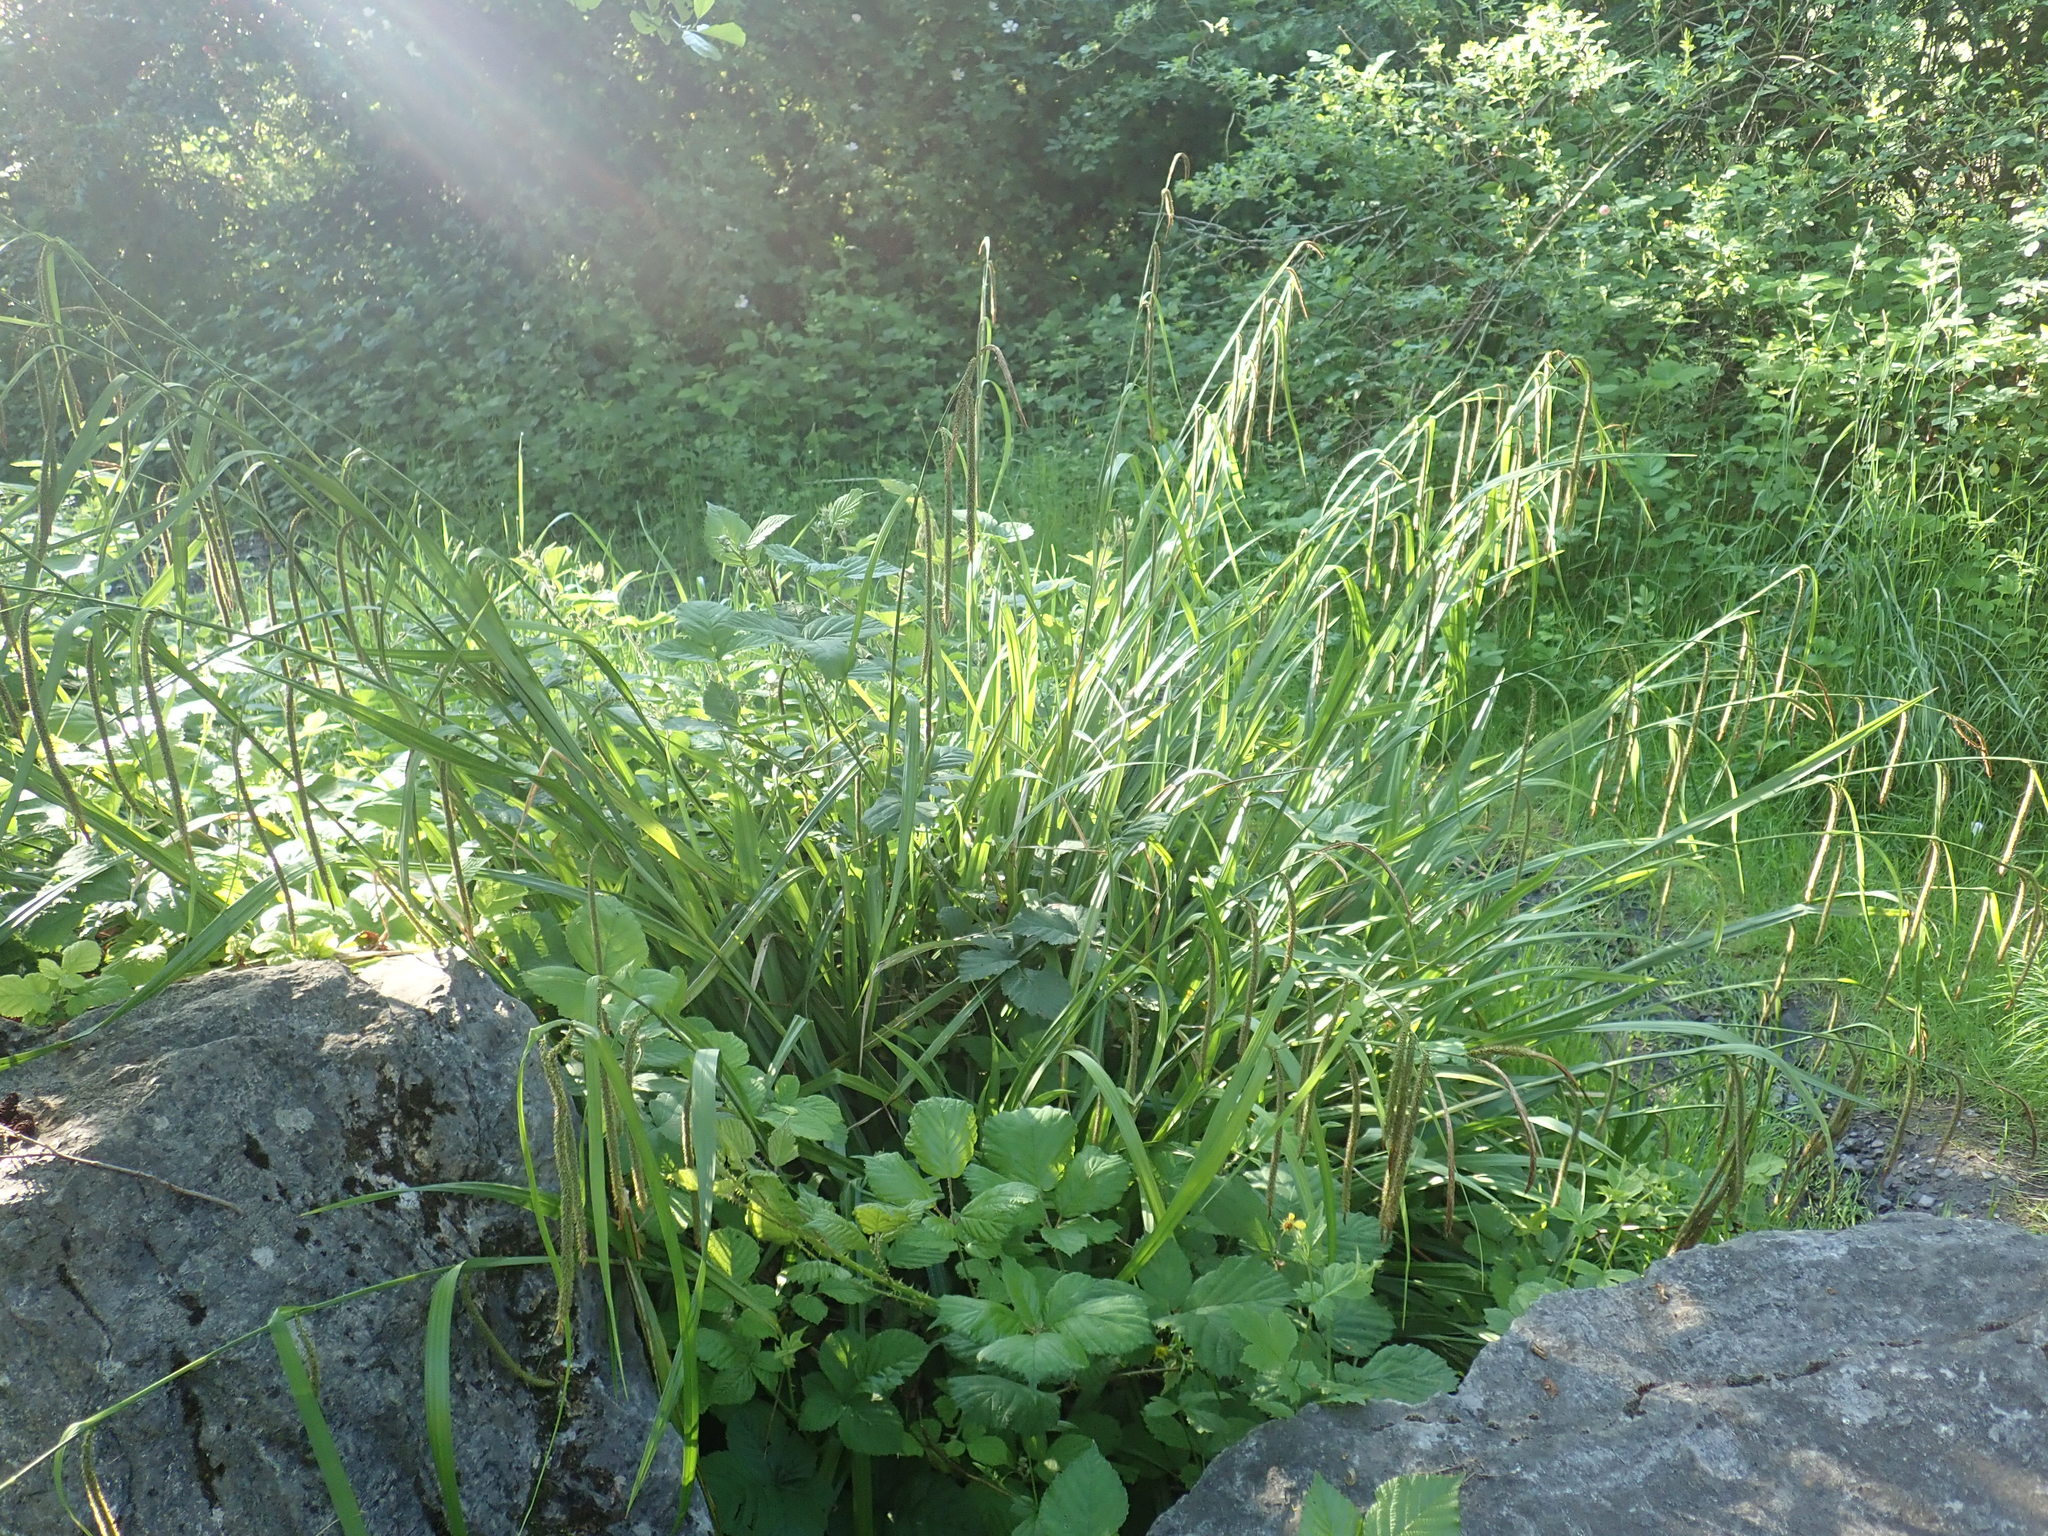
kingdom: Plantae
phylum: Tracheophyta
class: Liliopsida
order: Poales
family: Cyperaceae
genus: Carex
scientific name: Carex pendula
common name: Pendulous sedge
